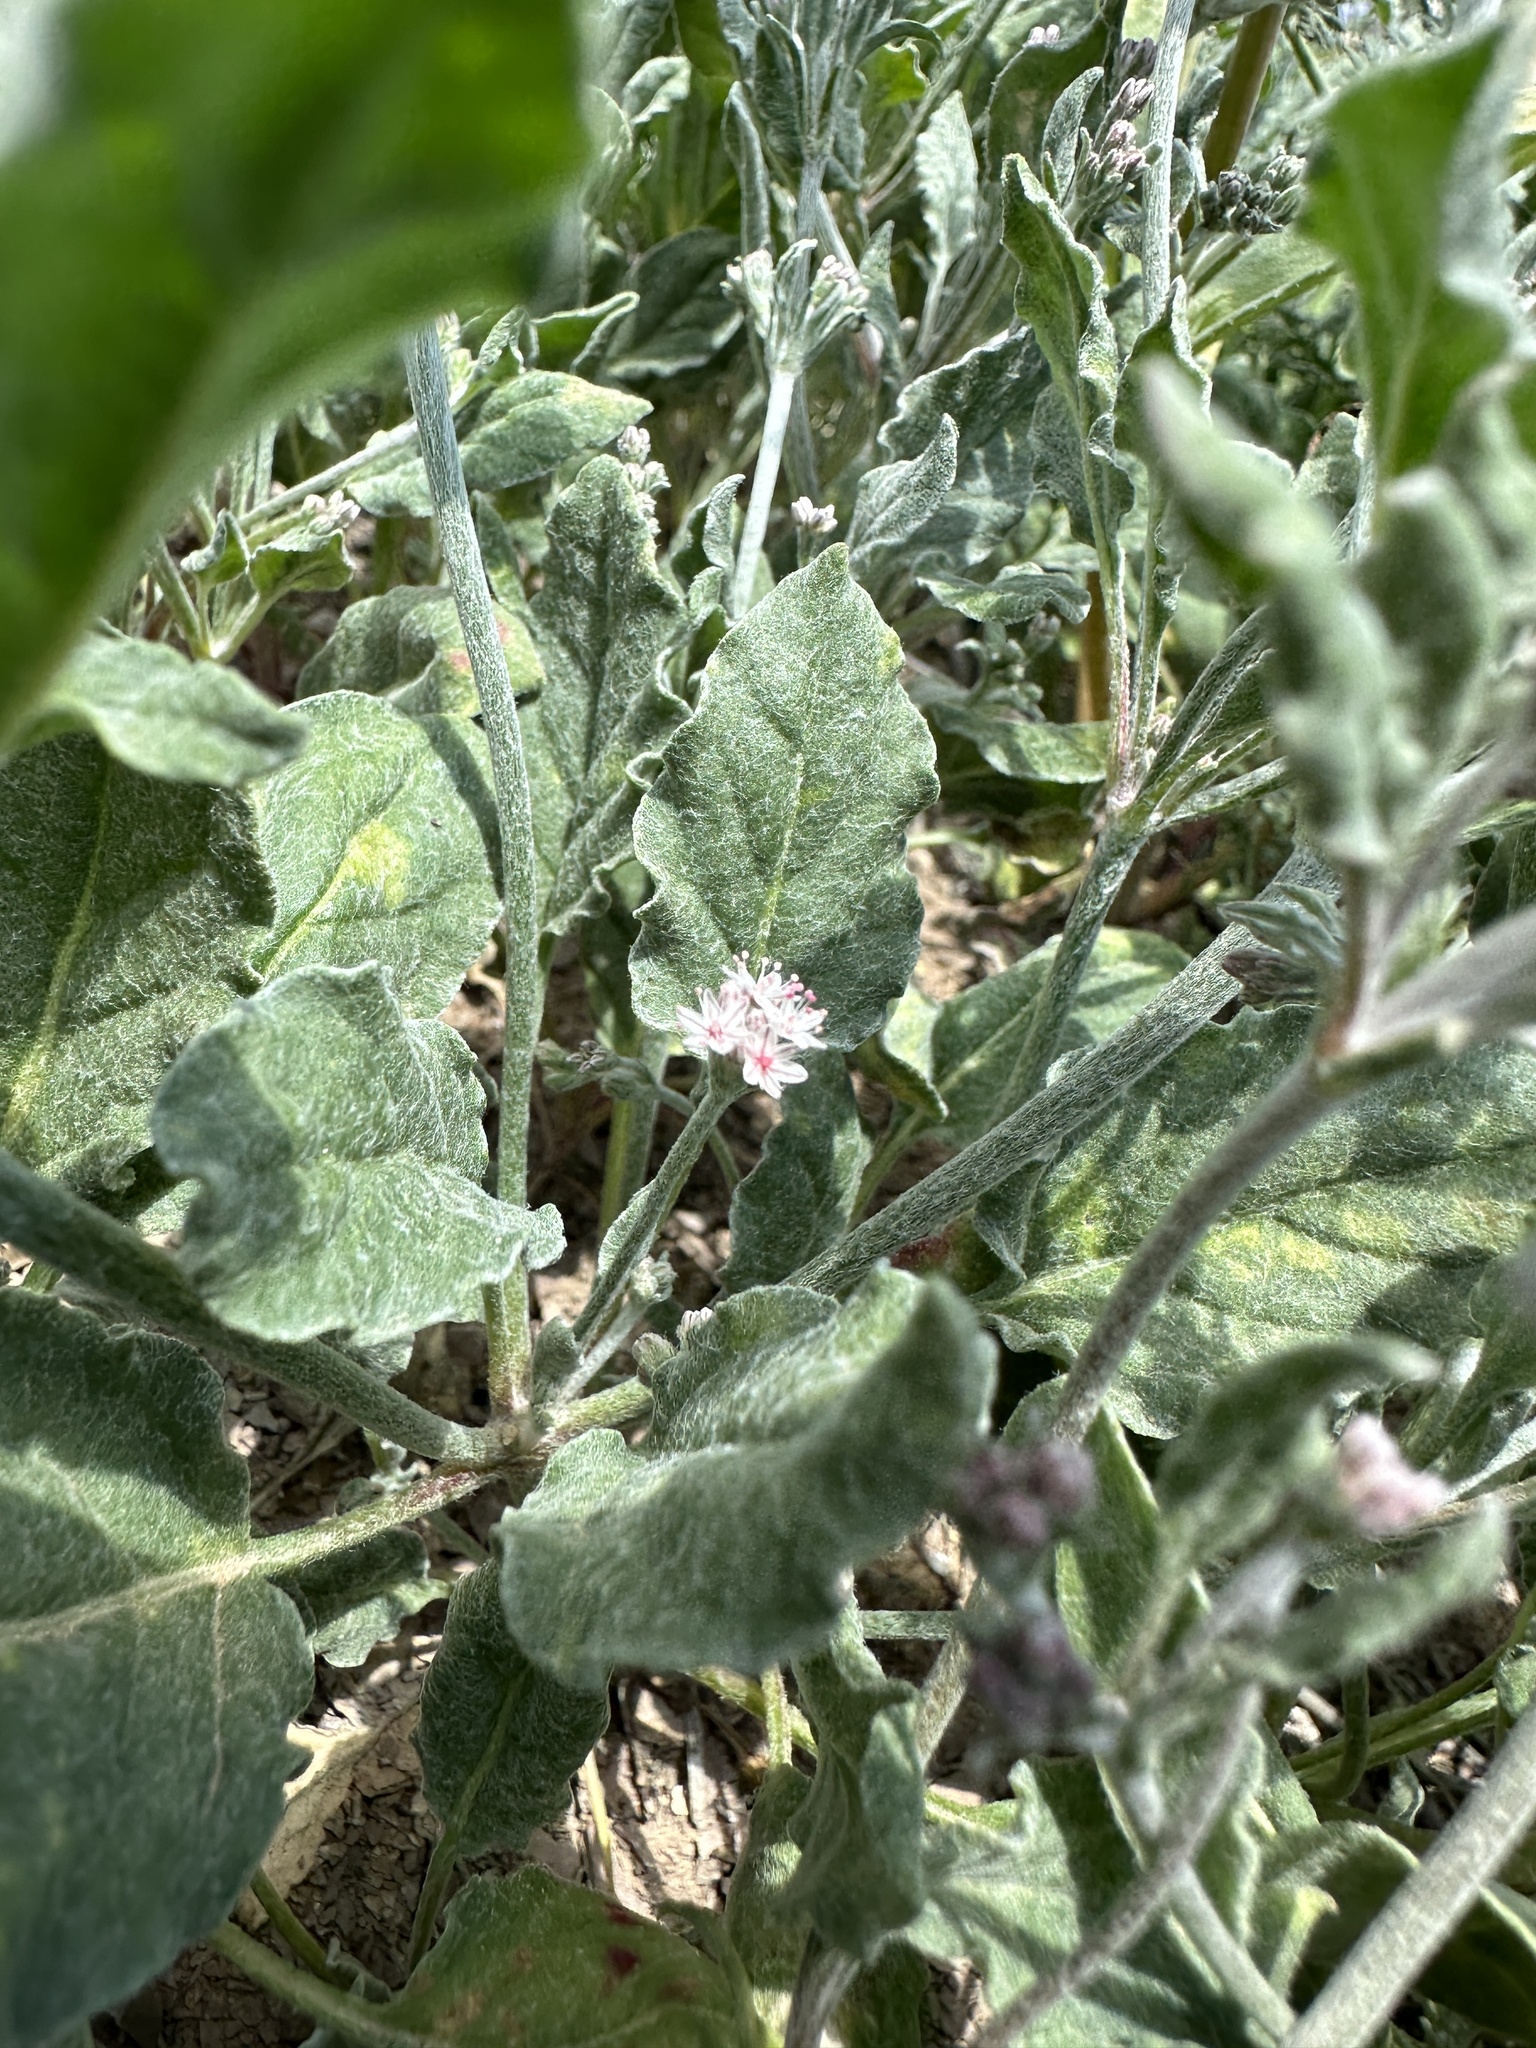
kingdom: Plantae
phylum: Tracheophyta
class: Magnoliopsida
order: Caryophyllales
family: Polygonaceae
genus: Eriogonum
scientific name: Eriogonum vestitum
